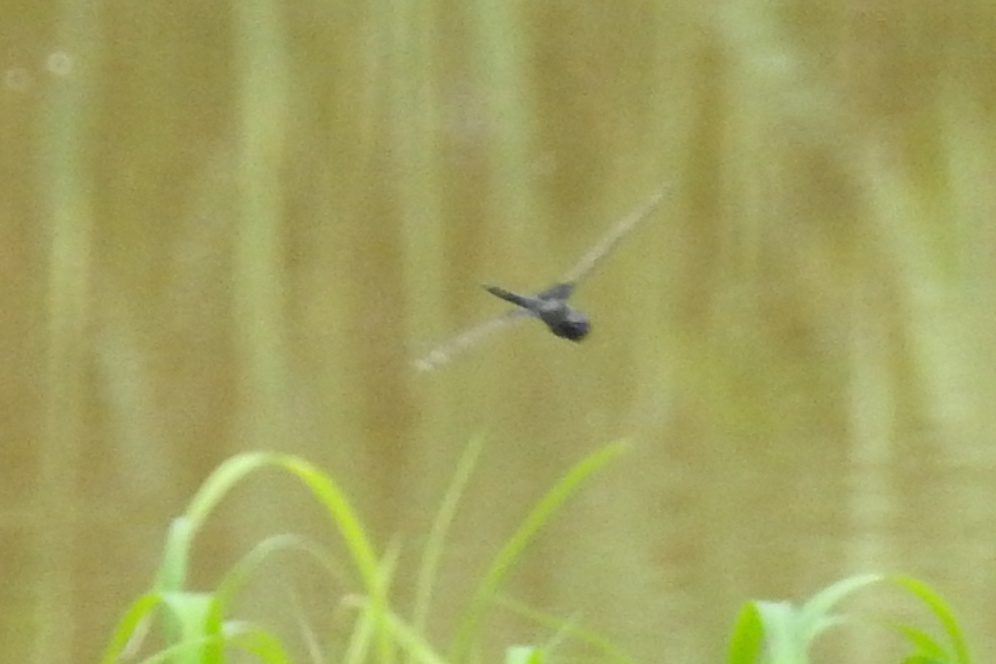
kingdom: Animalia
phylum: Arthropoda
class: Insecta
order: Odonata
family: Libellulidae
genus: Tramea
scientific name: Tramea lacerata
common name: Black saddlebags
